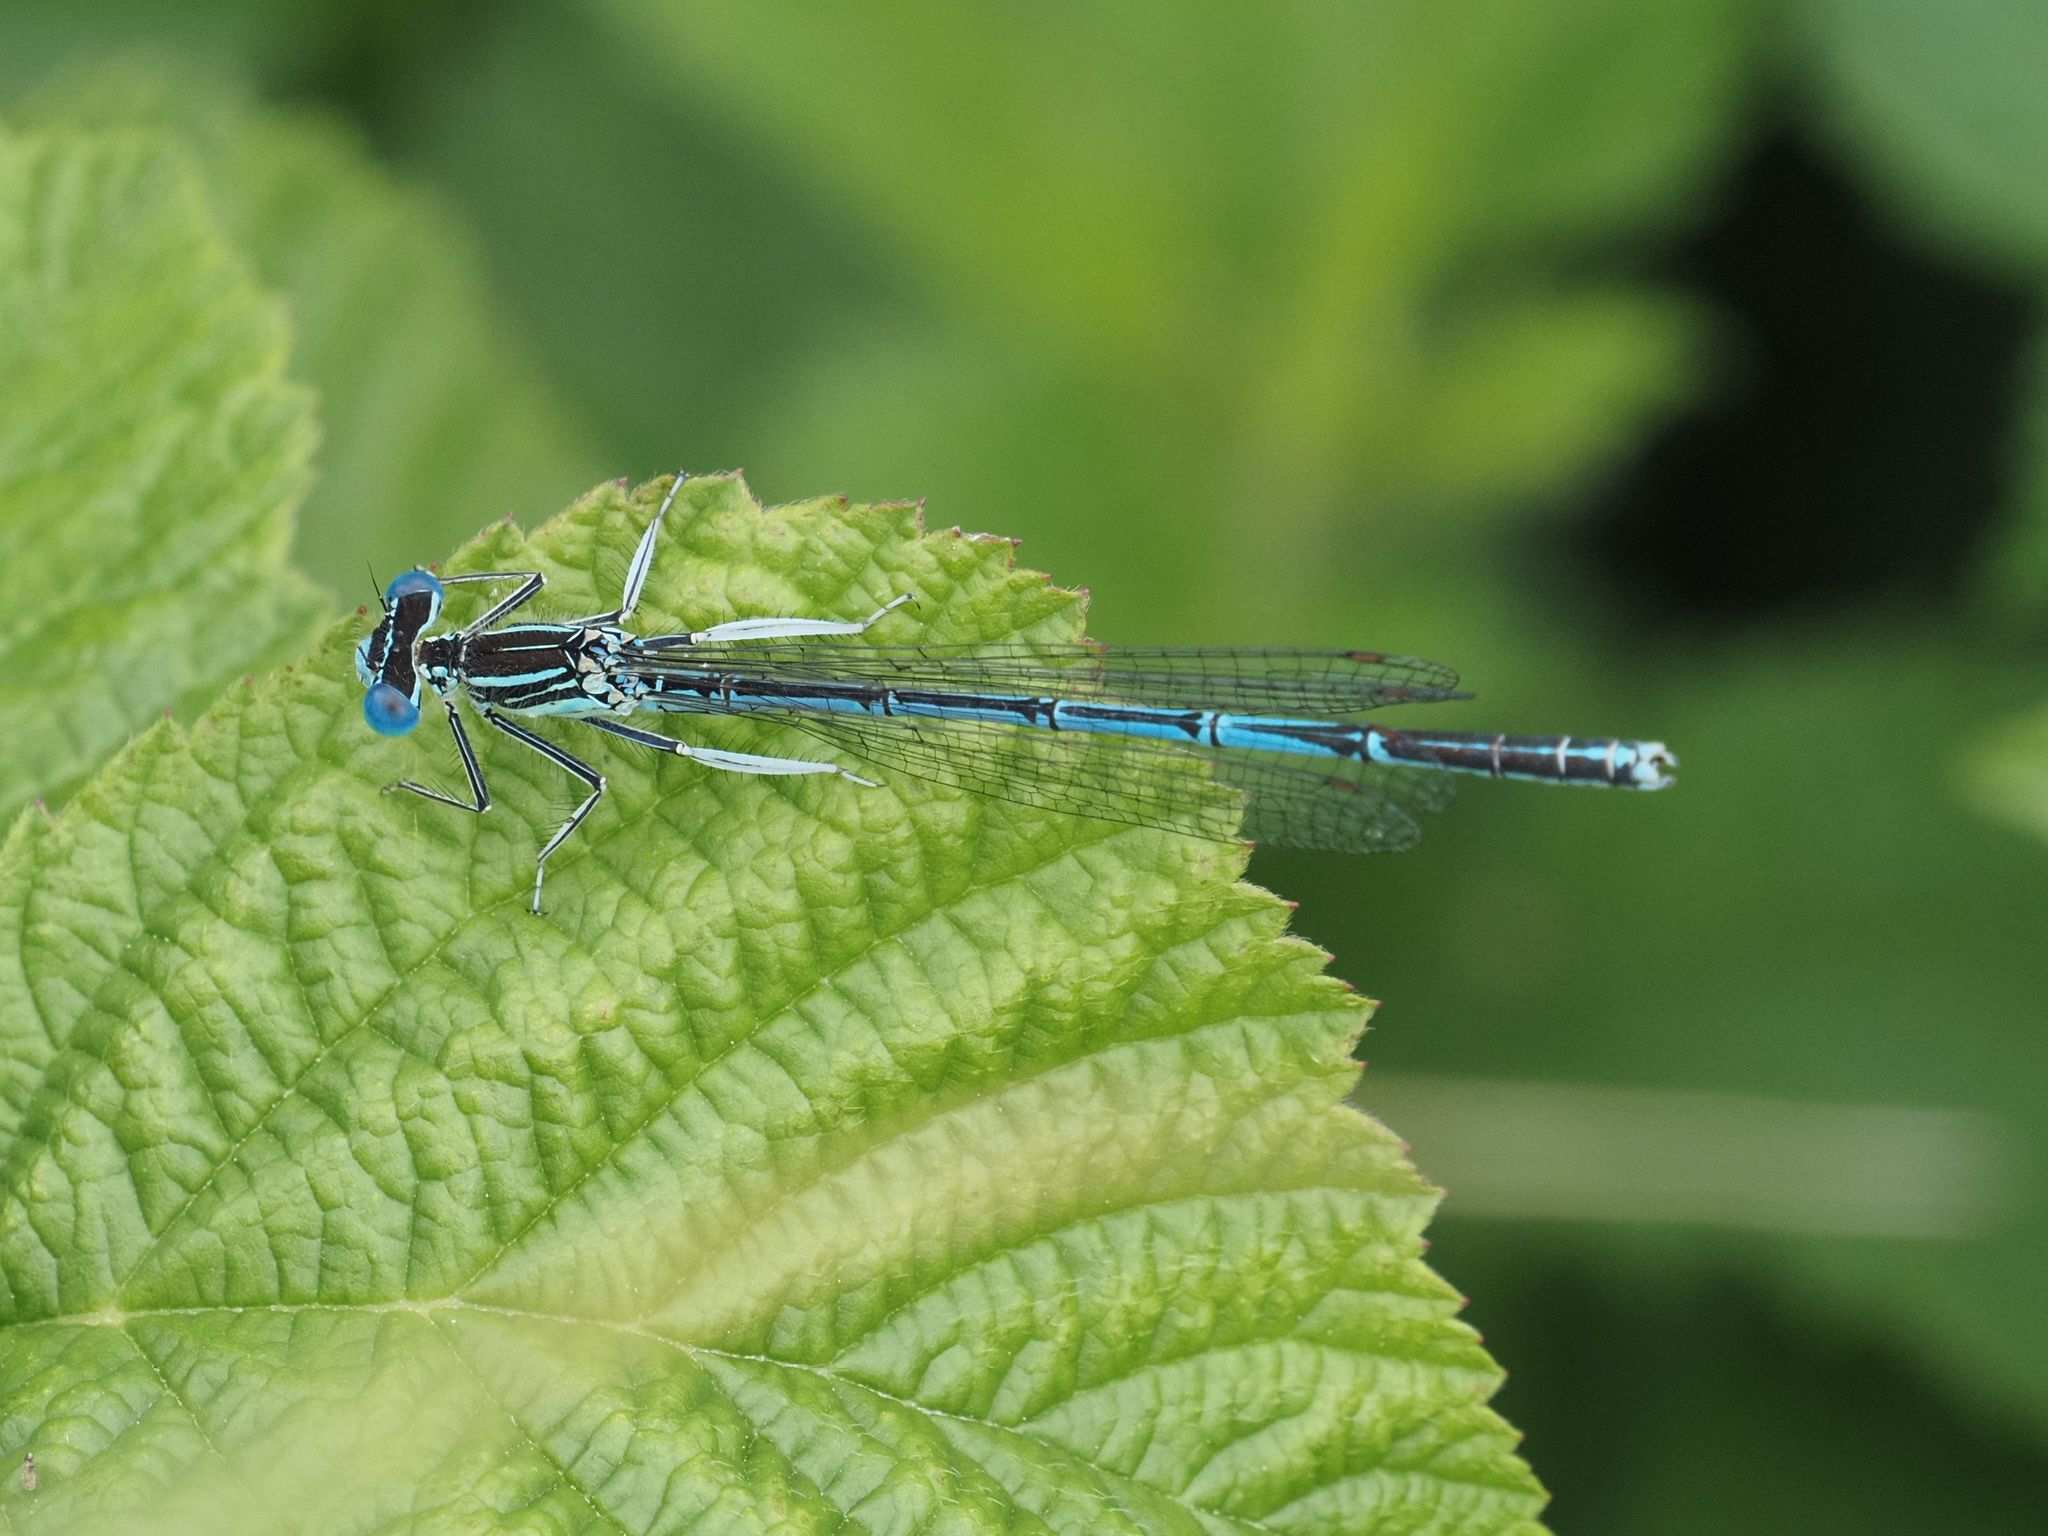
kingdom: Animalia
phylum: Arthropoda
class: Insecta
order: Odonata
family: Platycnemididae
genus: Platycnemis
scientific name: Platycnemis pennipes
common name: White-legged damselfly
